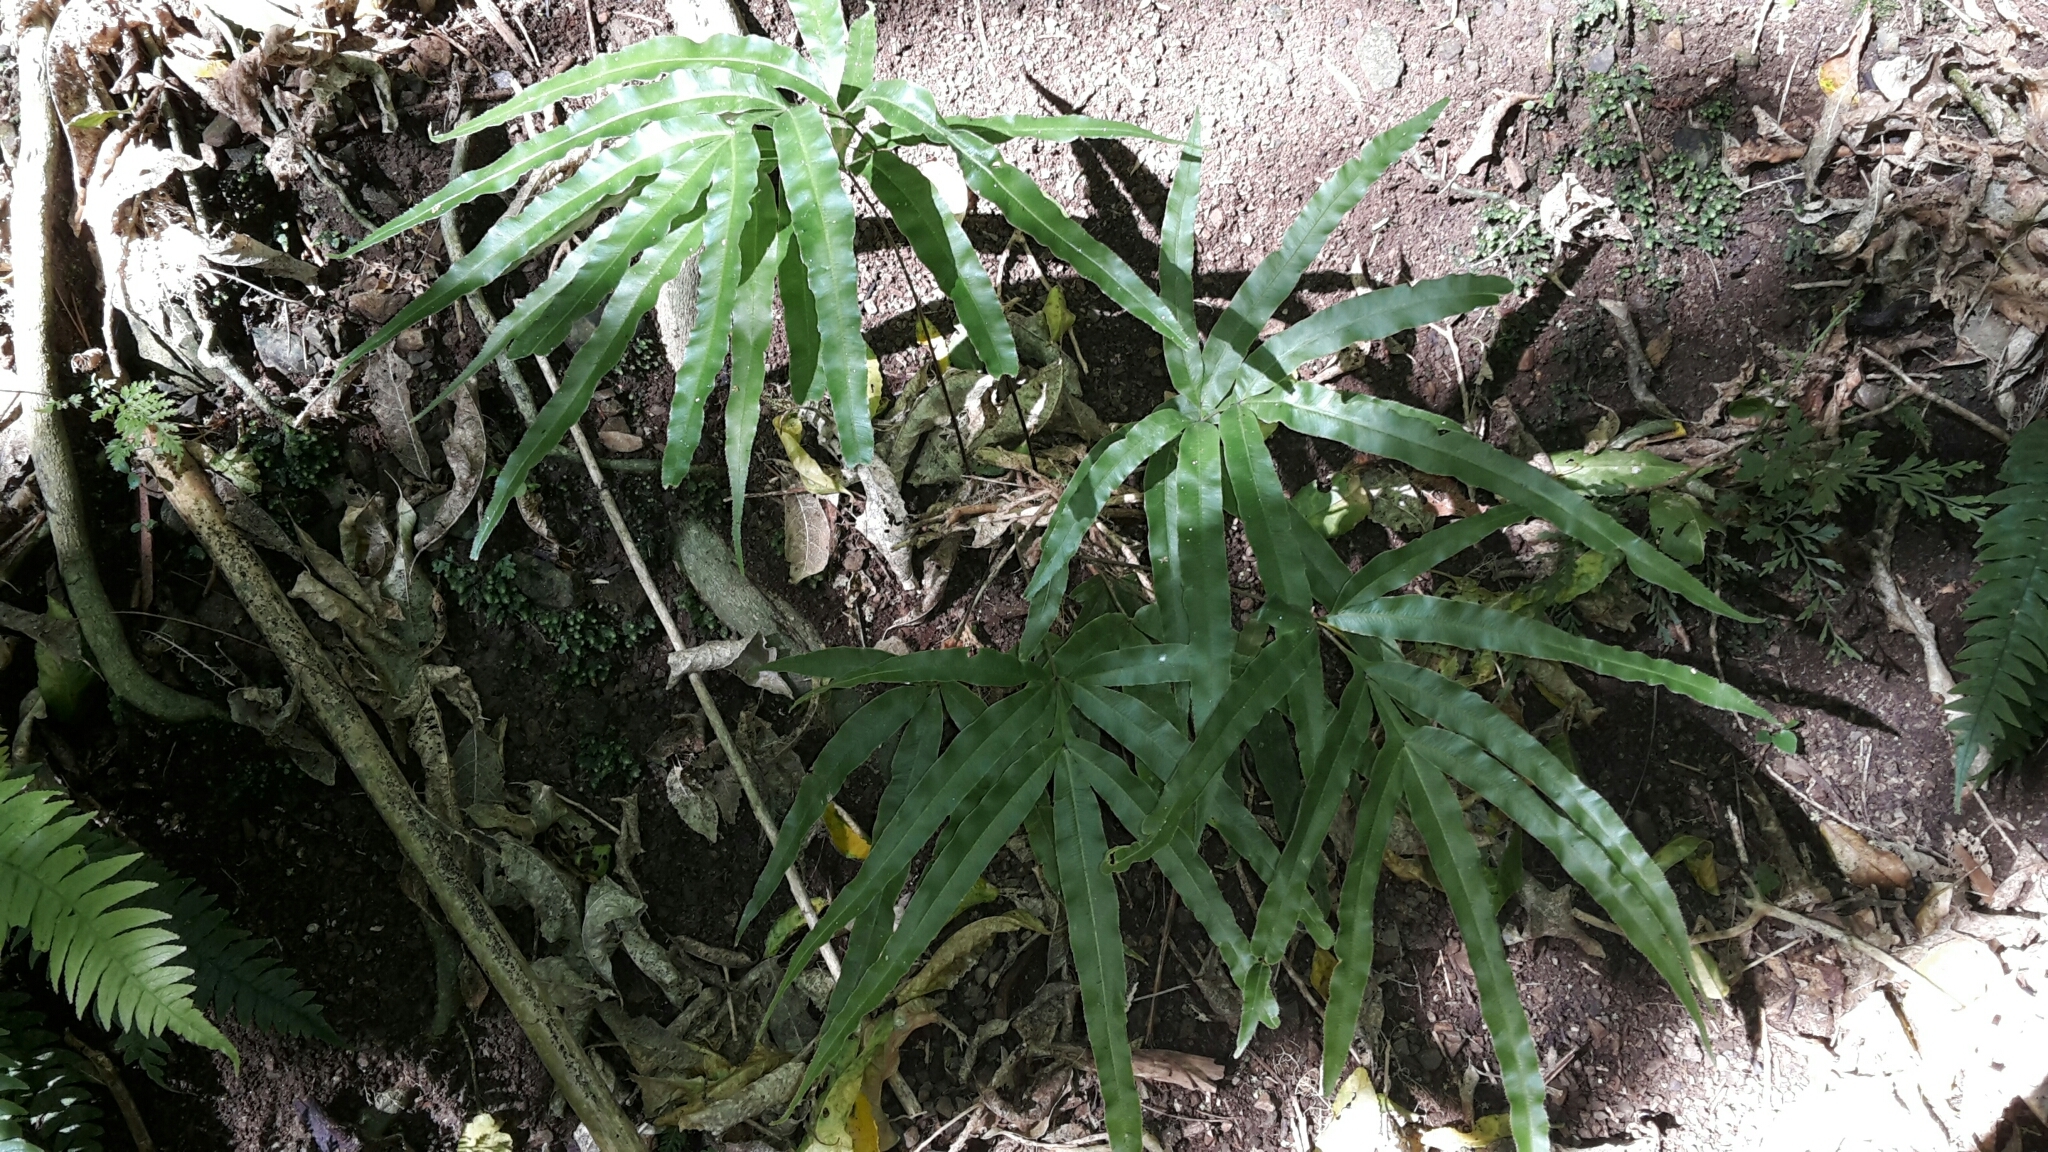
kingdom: Plantae
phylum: Tracheophyta
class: Polypodiopsida
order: Polypodiales
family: Pteridaceae
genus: Pteris
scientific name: Pteris cretica
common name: Ribbon fern
